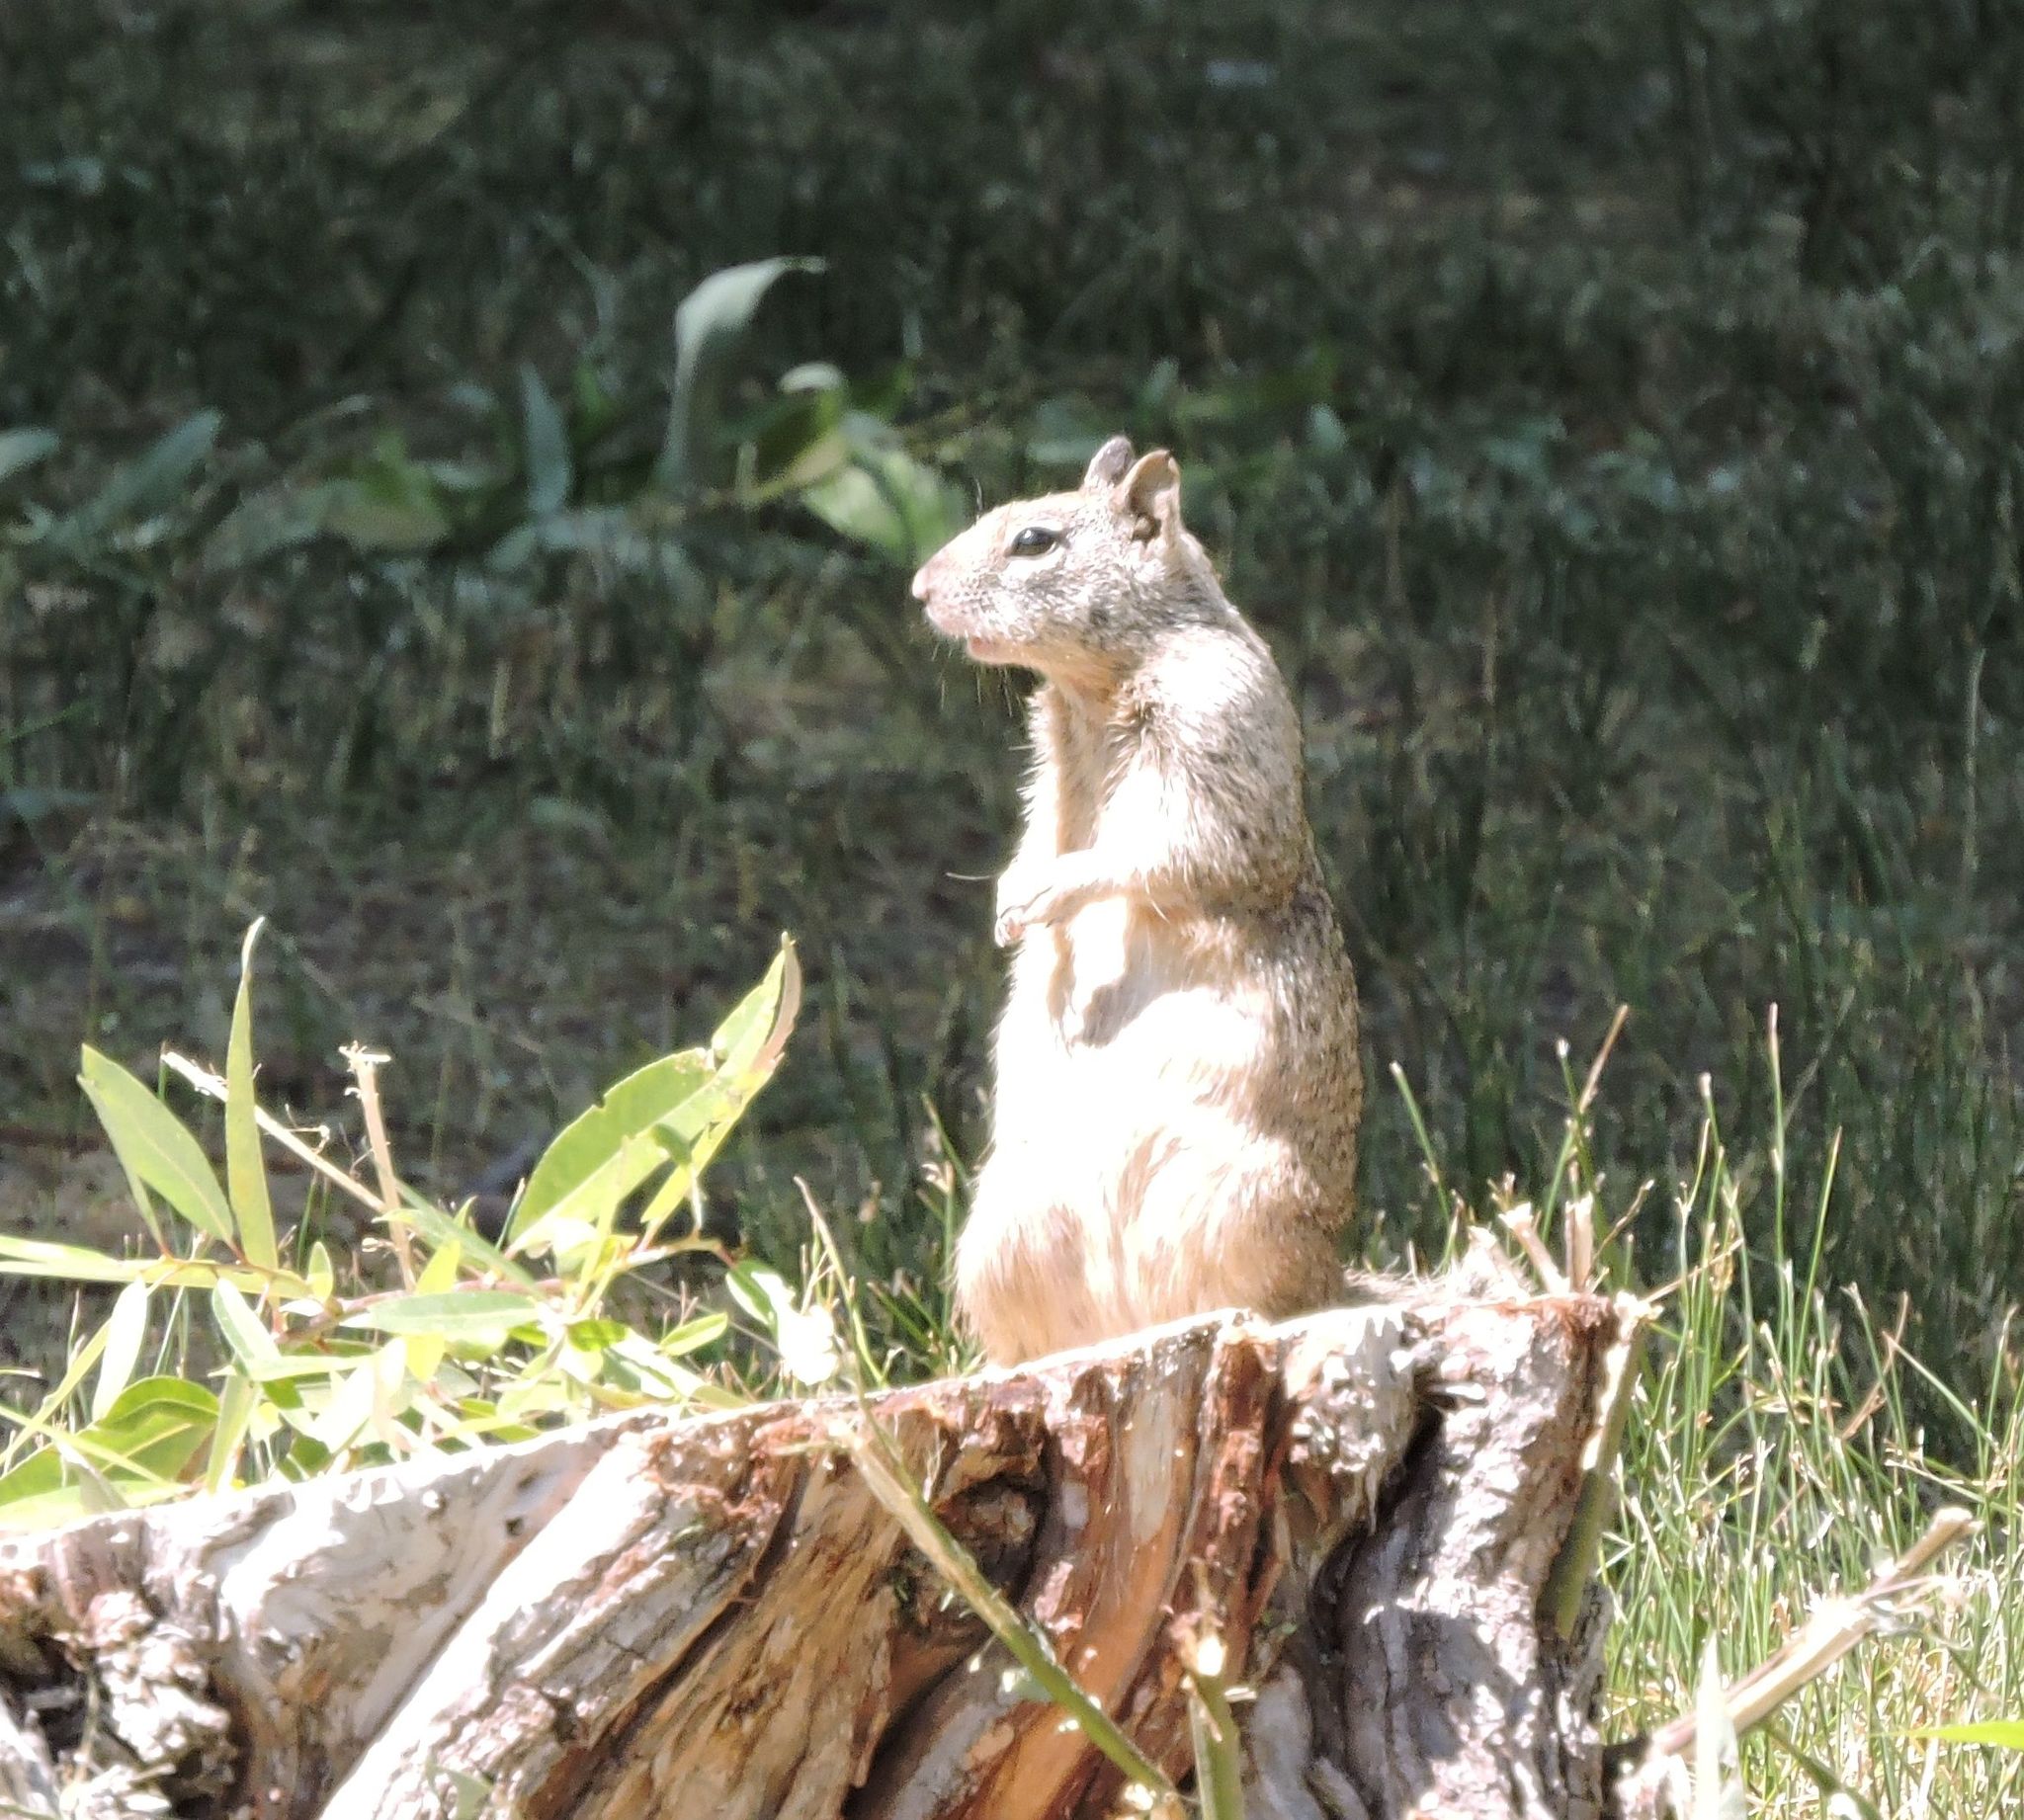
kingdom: Animalia
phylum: Chordata
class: Mammalia
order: Rodentia
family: Sciuridae
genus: Otospermophilus
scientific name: Otospermophilus beecheyi
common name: California ground squirrel
